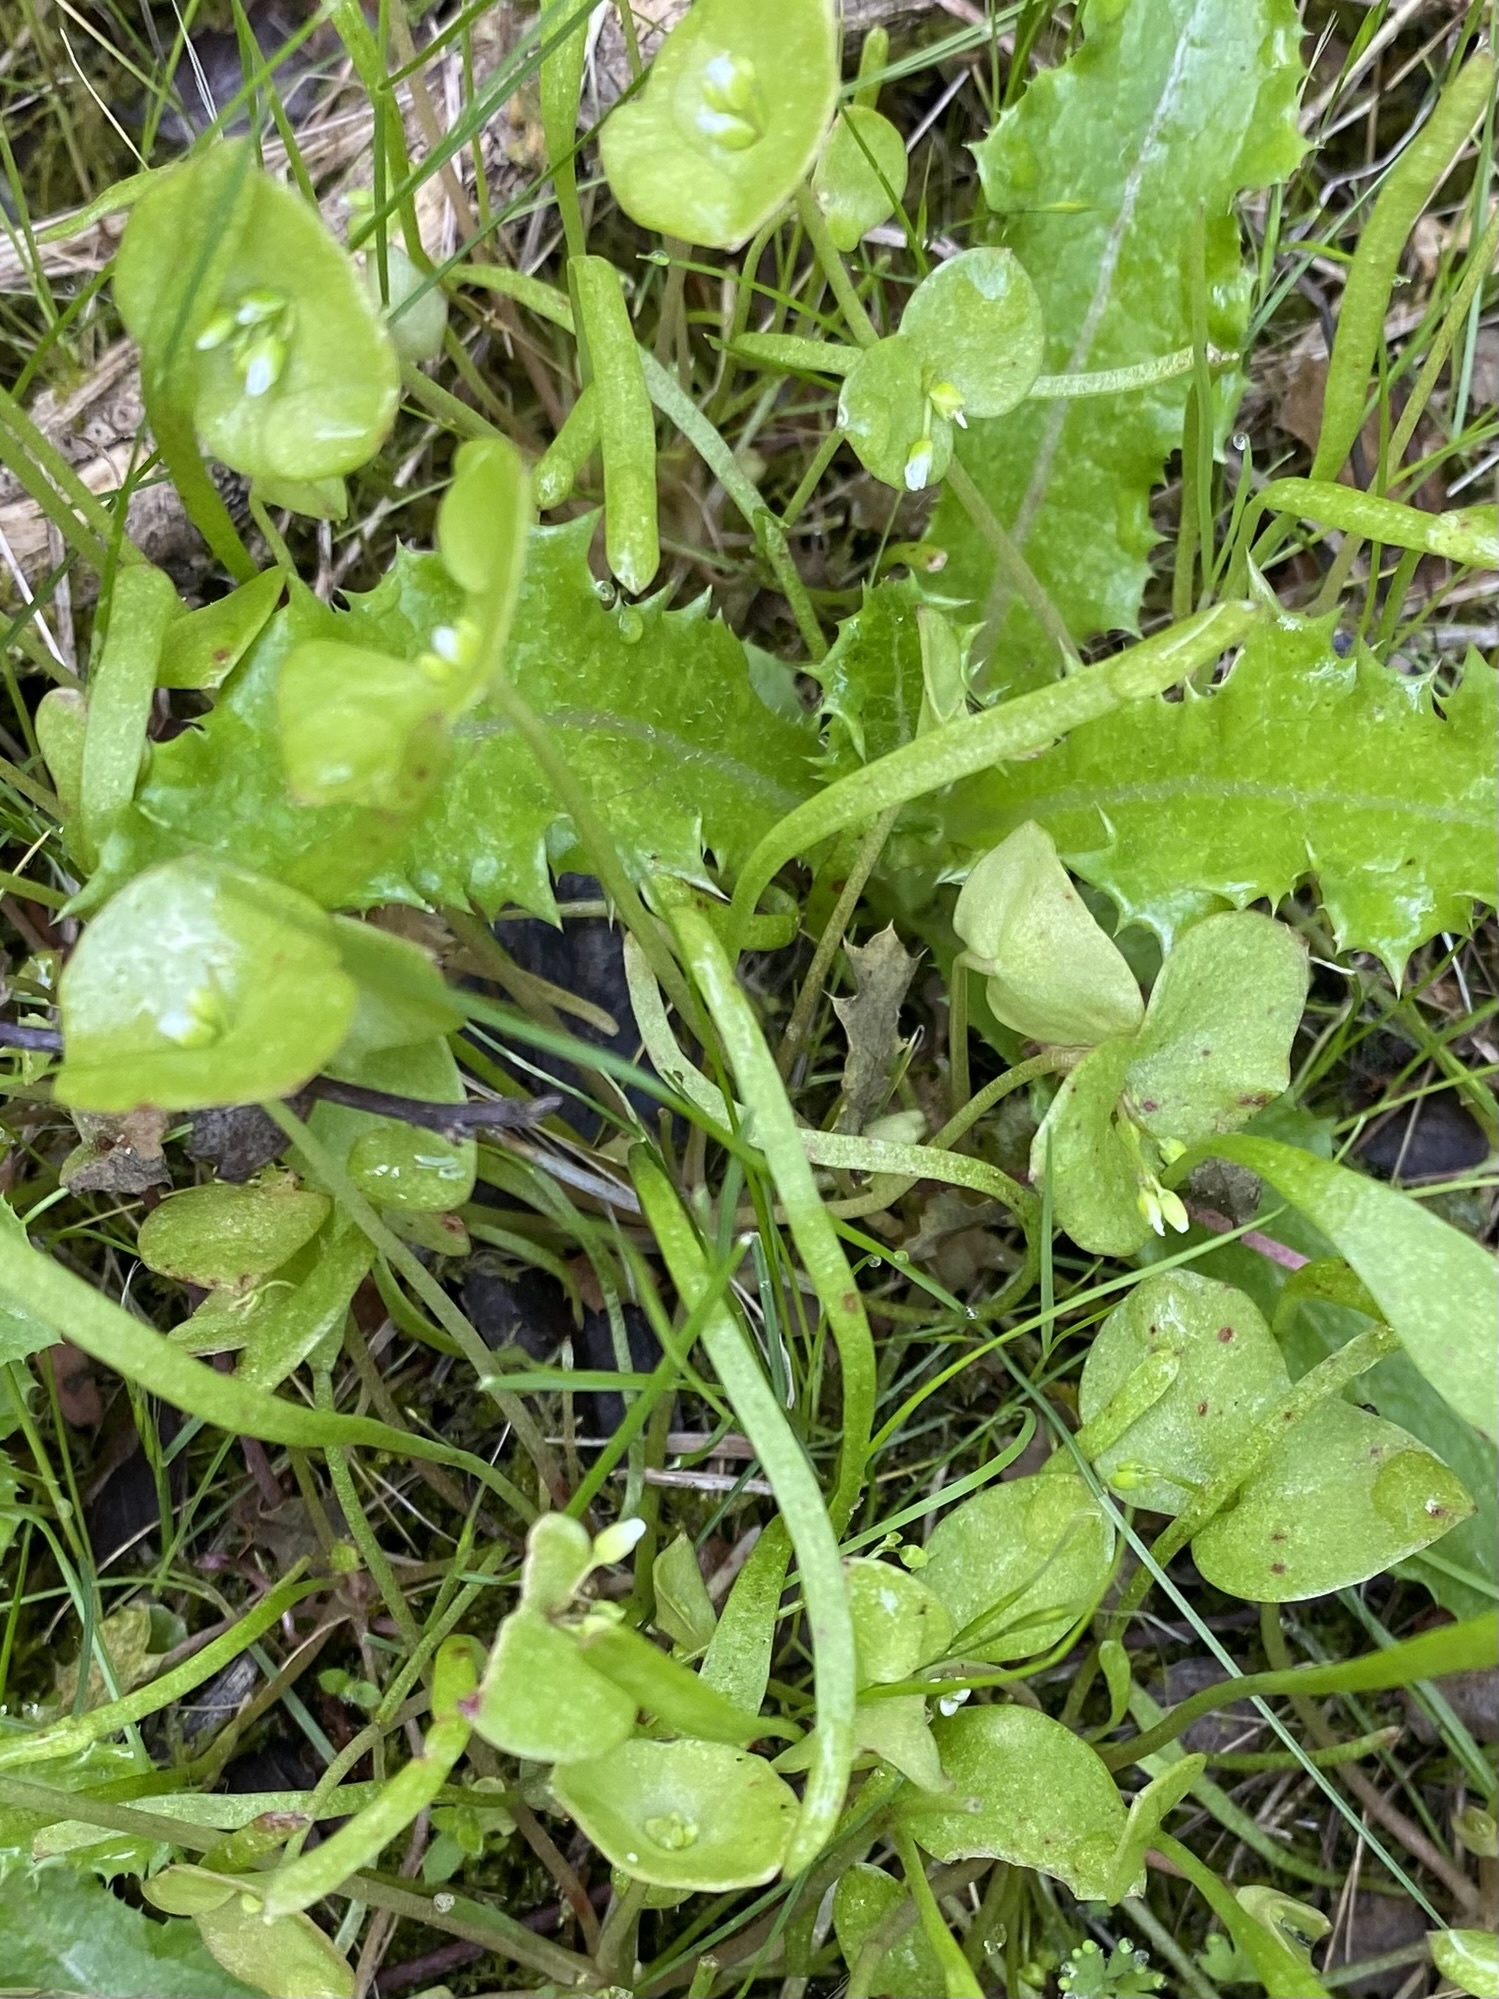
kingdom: Plantae
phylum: Tracheophyta
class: Magnoliopsida
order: Caryophyllales
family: Montiaceae
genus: Claytonia
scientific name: Claytonia perfoliata
